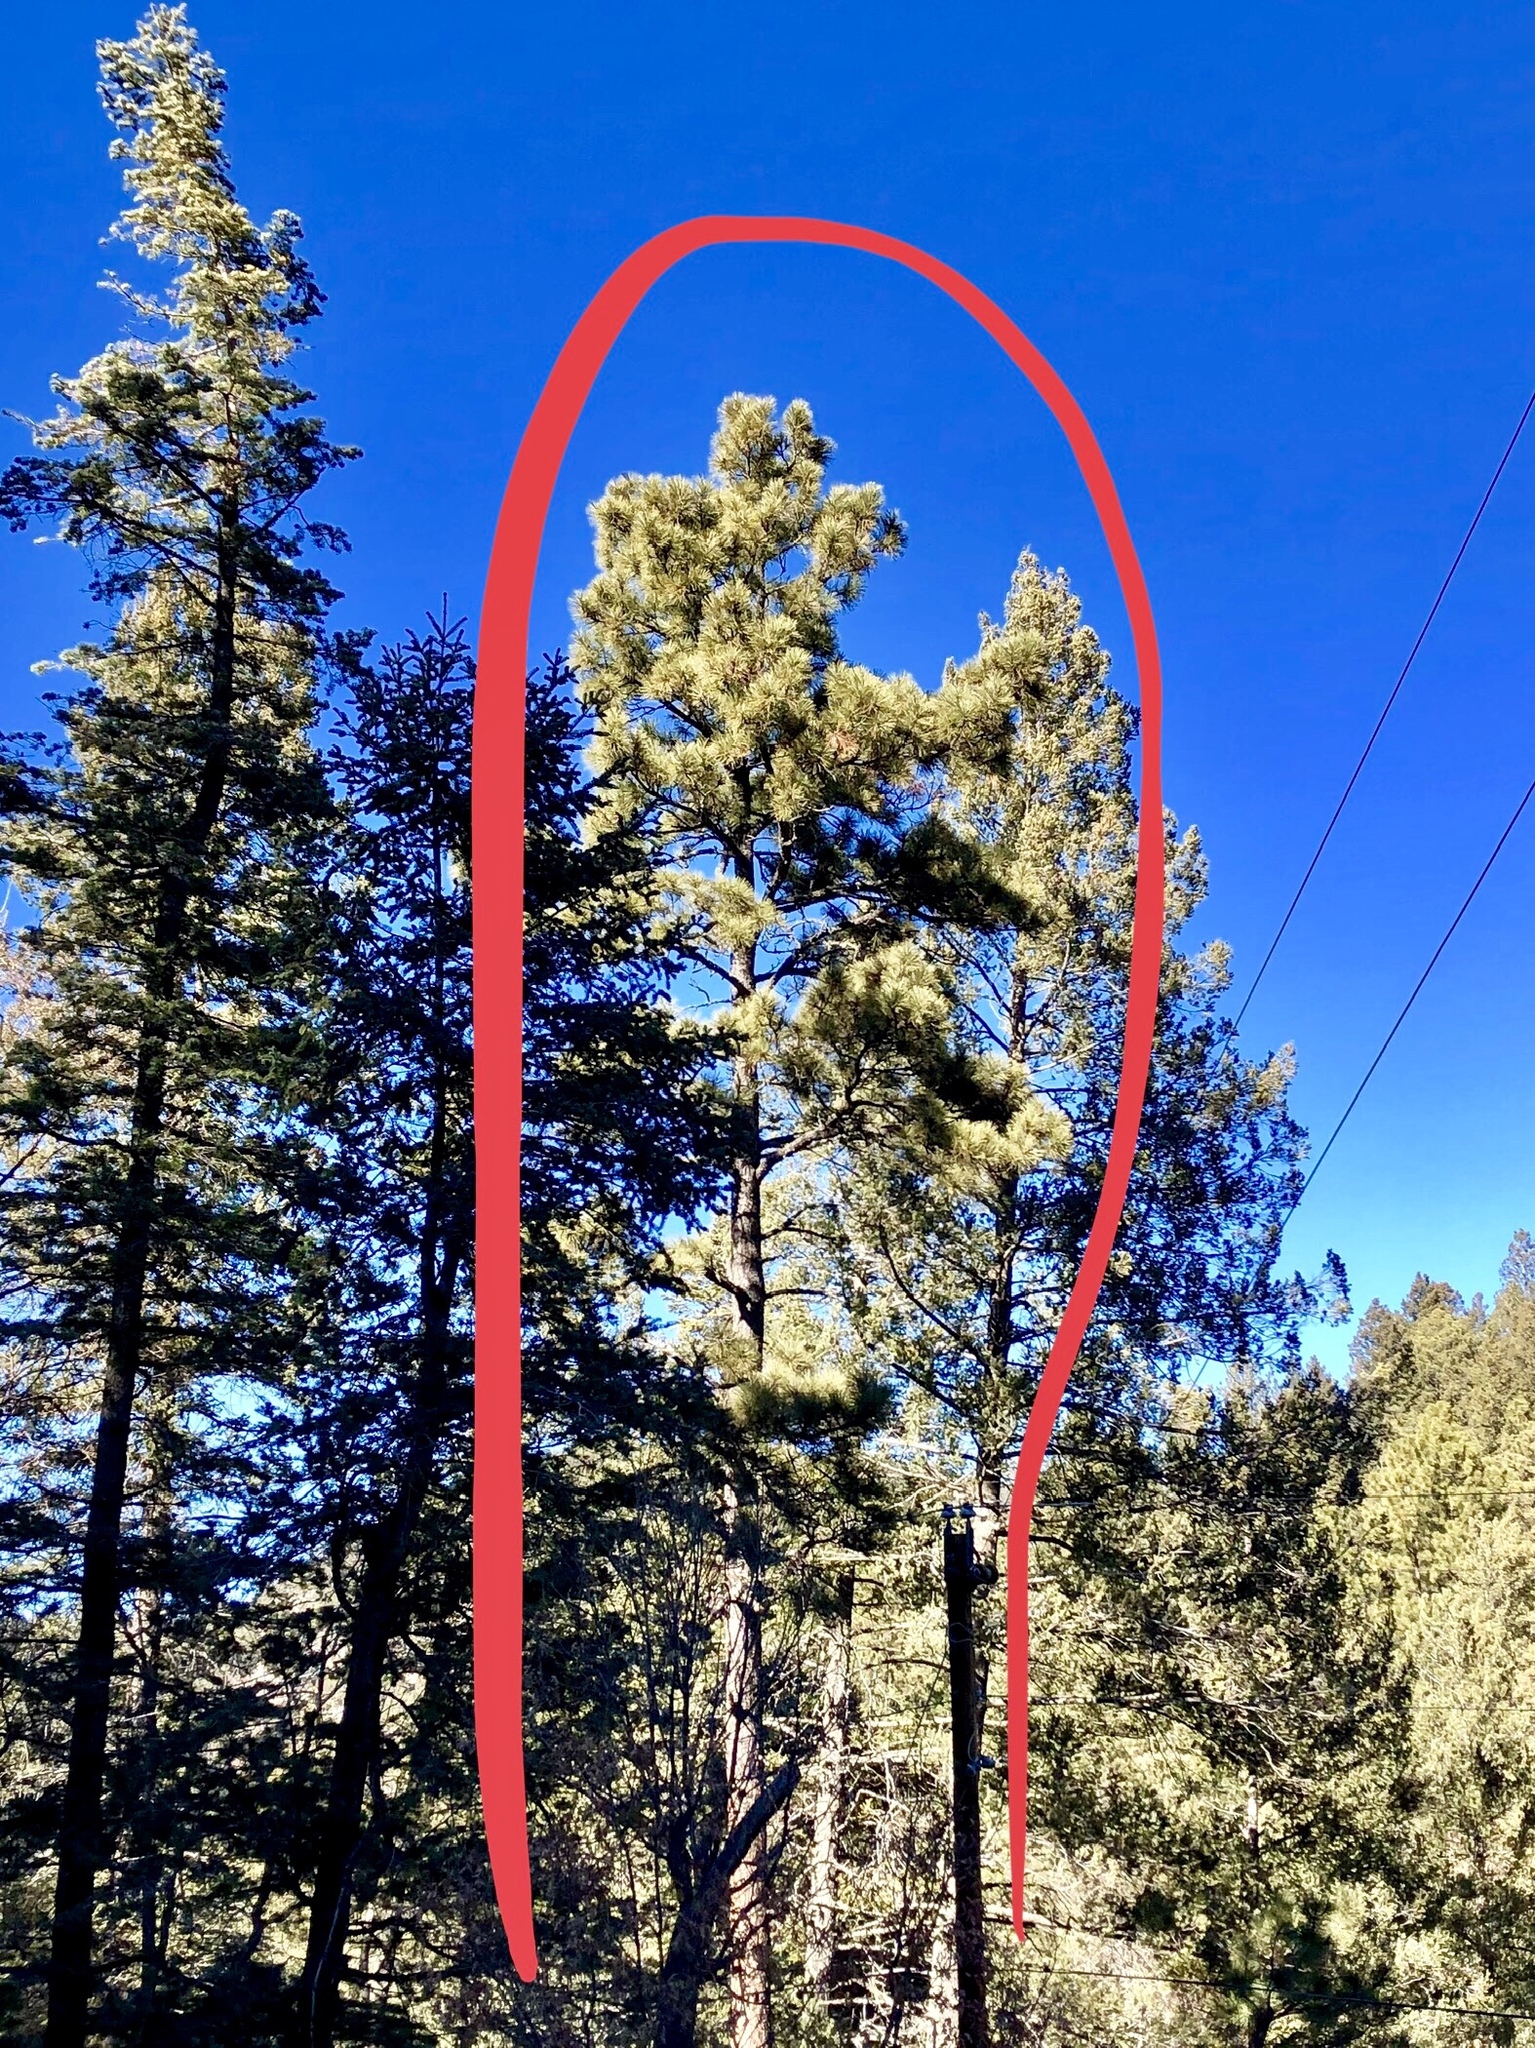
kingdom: Plantae
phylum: Tracheophyta
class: Pinopsida
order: Pinales
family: Pinaceae
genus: Pinus
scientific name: Pinus ponderosa
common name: Western yellow-pine
